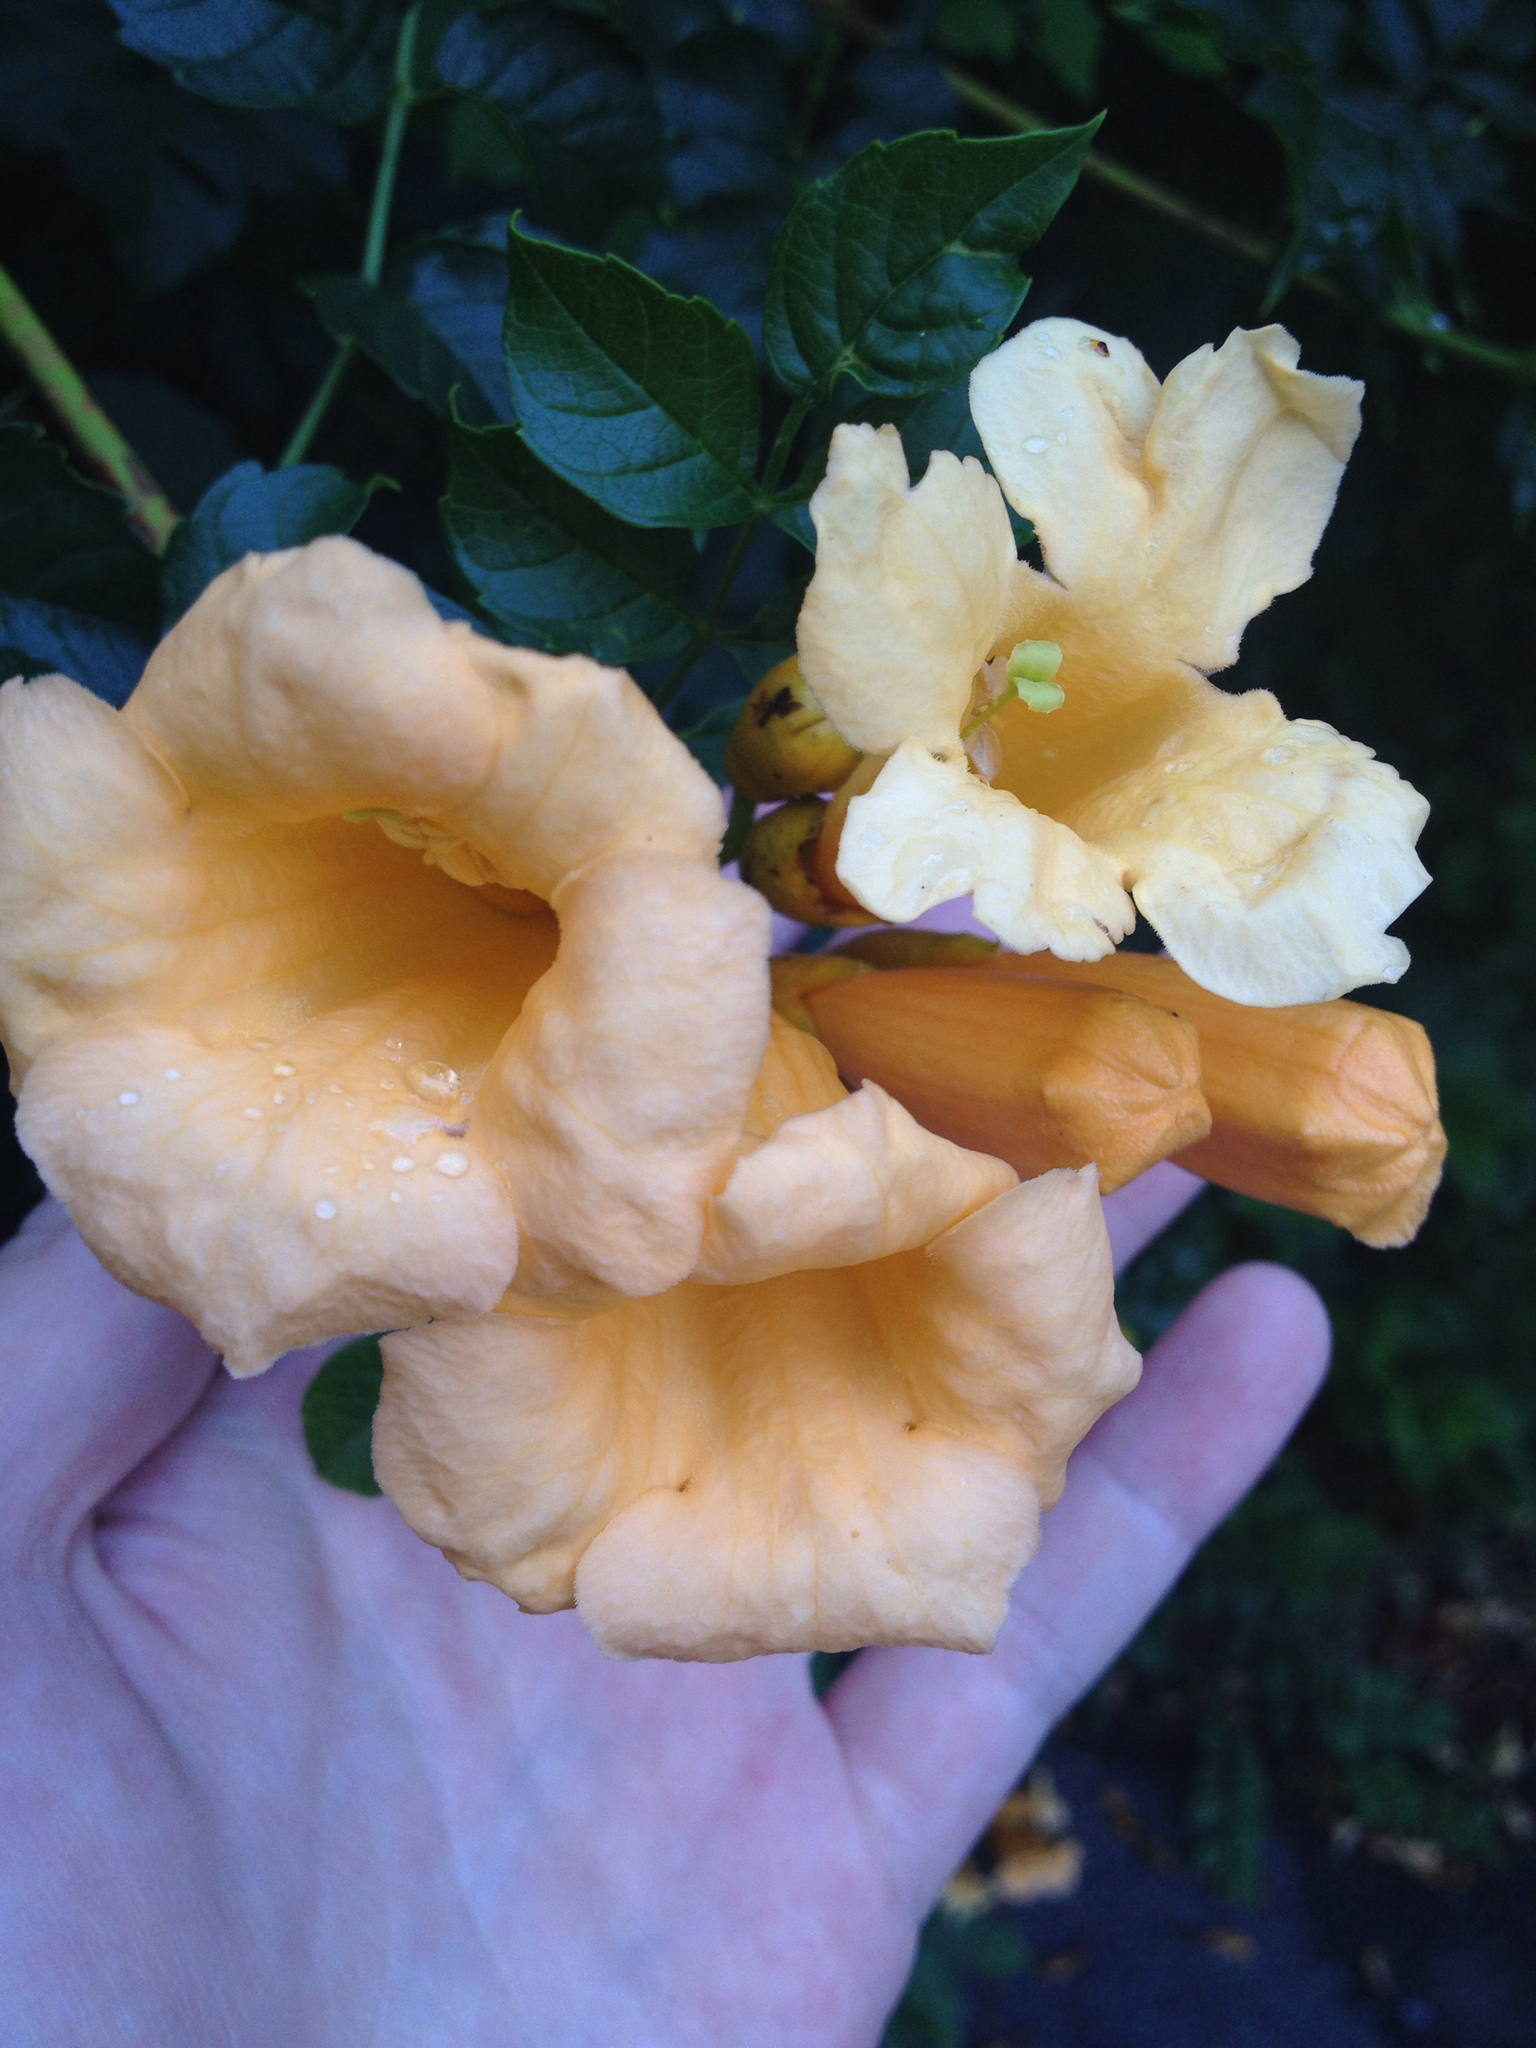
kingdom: Plantae
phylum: Tracheophyta
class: Magnoliopsida
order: Lamiales
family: Bignoniaceae
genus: Campsis
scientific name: Campsis radicans
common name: Trumpet-creeper
